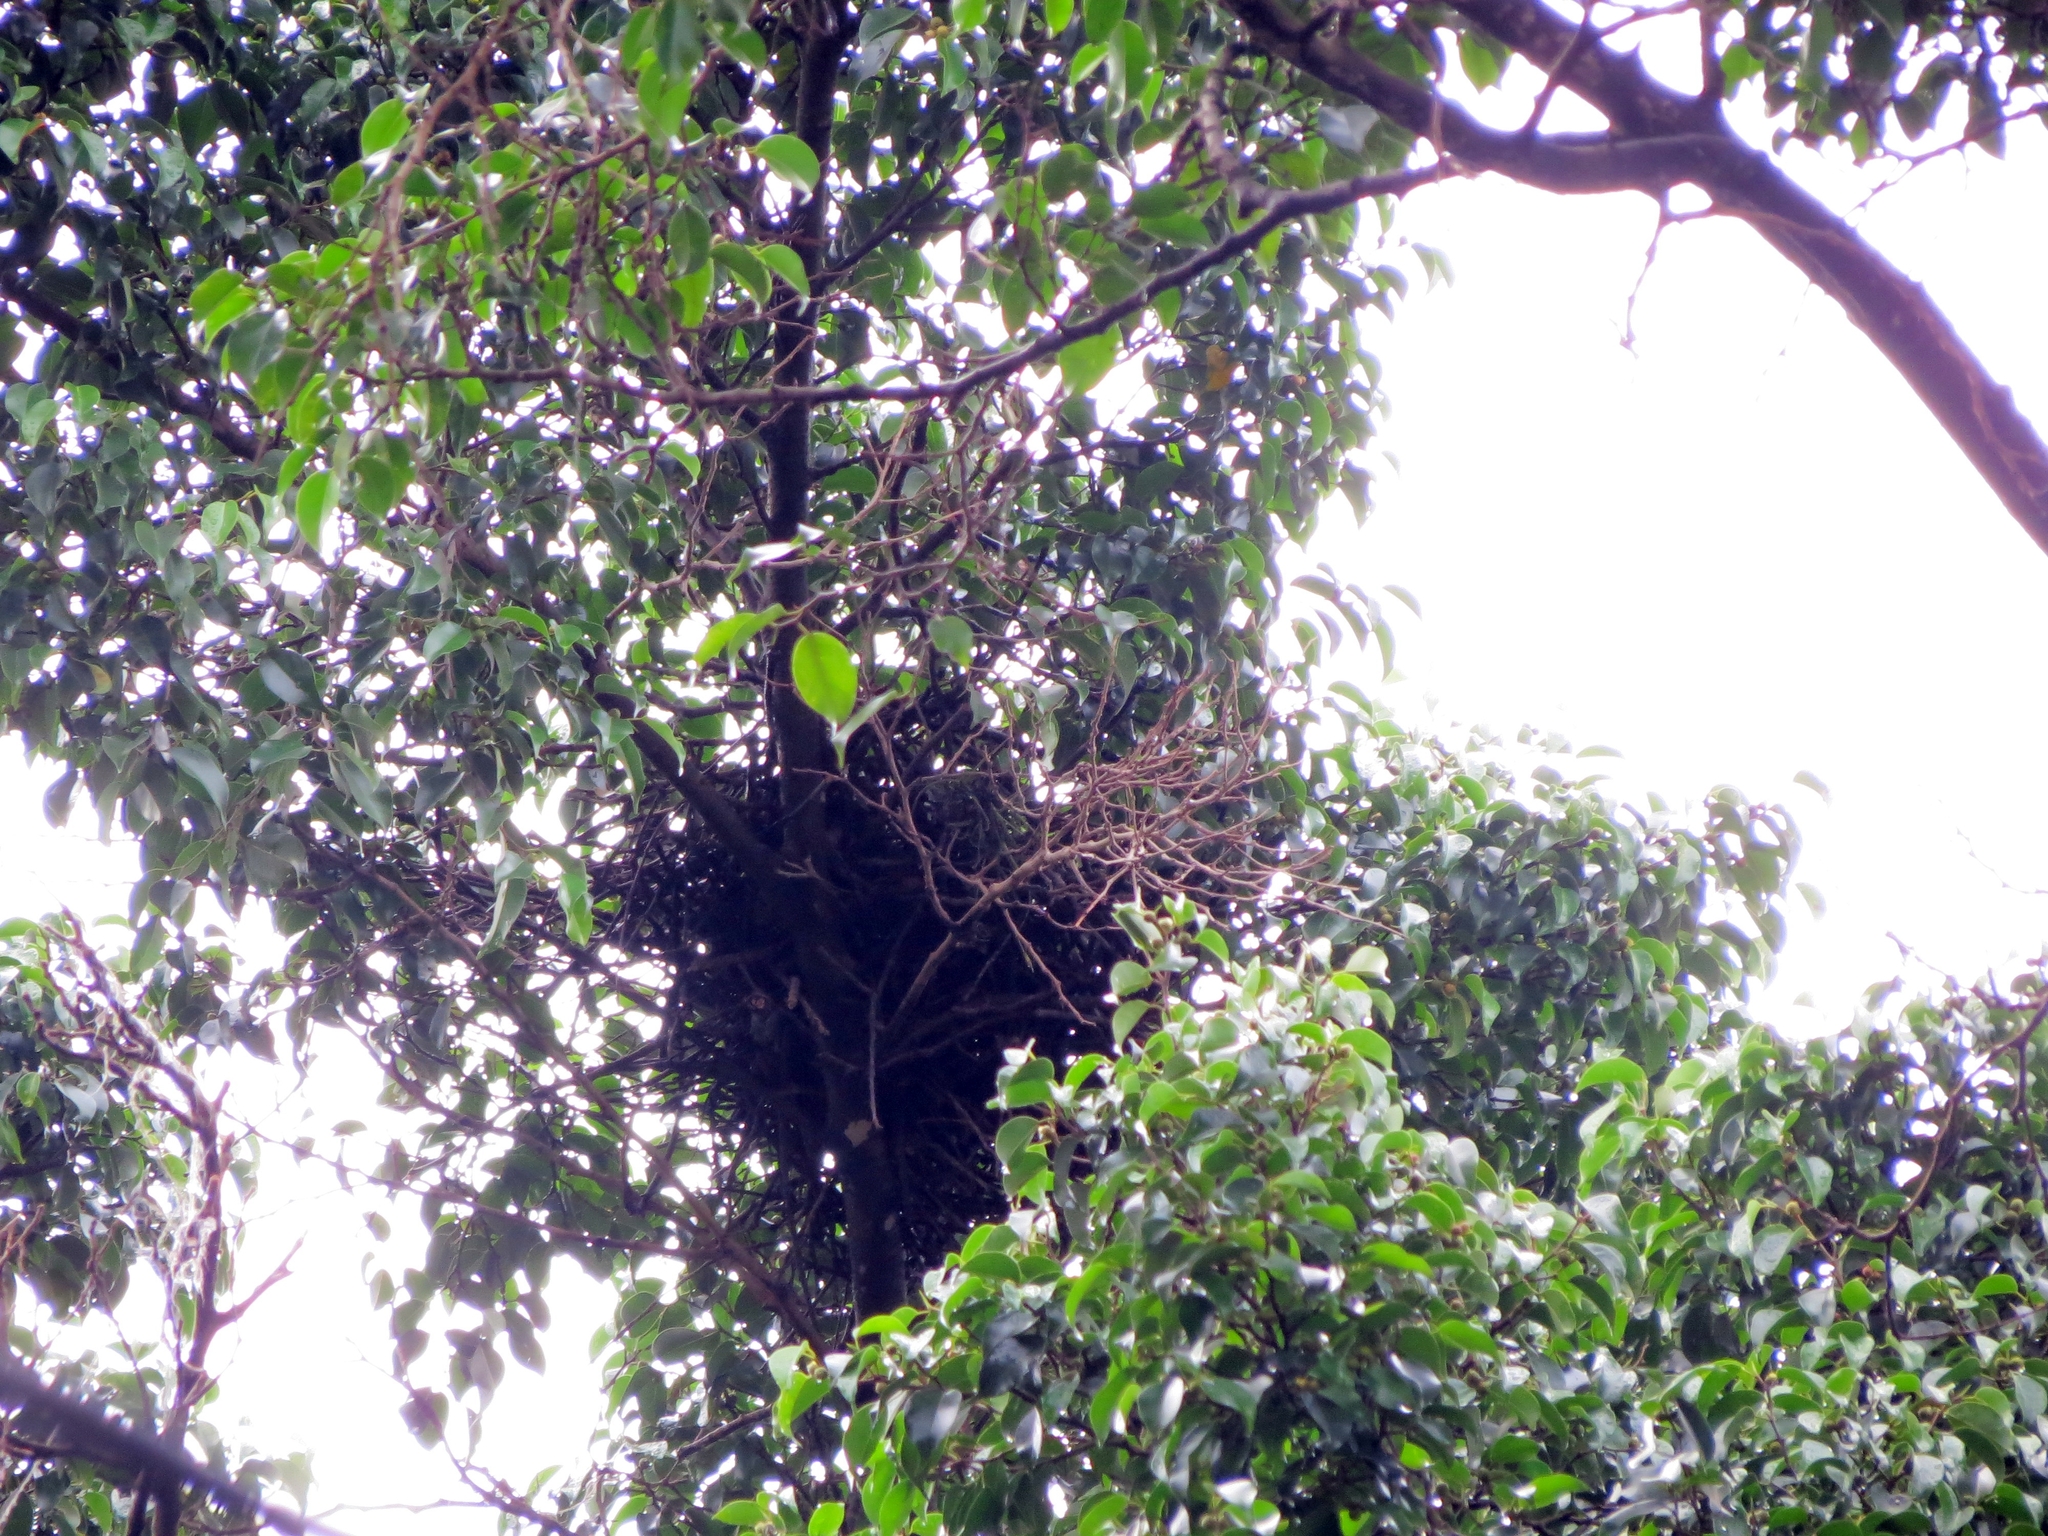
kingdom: Animalia
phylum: Chordata
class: Aves
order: Accipitriformes
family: Accipitridae
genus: Rupornis
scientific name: Rupornis magnirostris
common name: Roadside hawk
